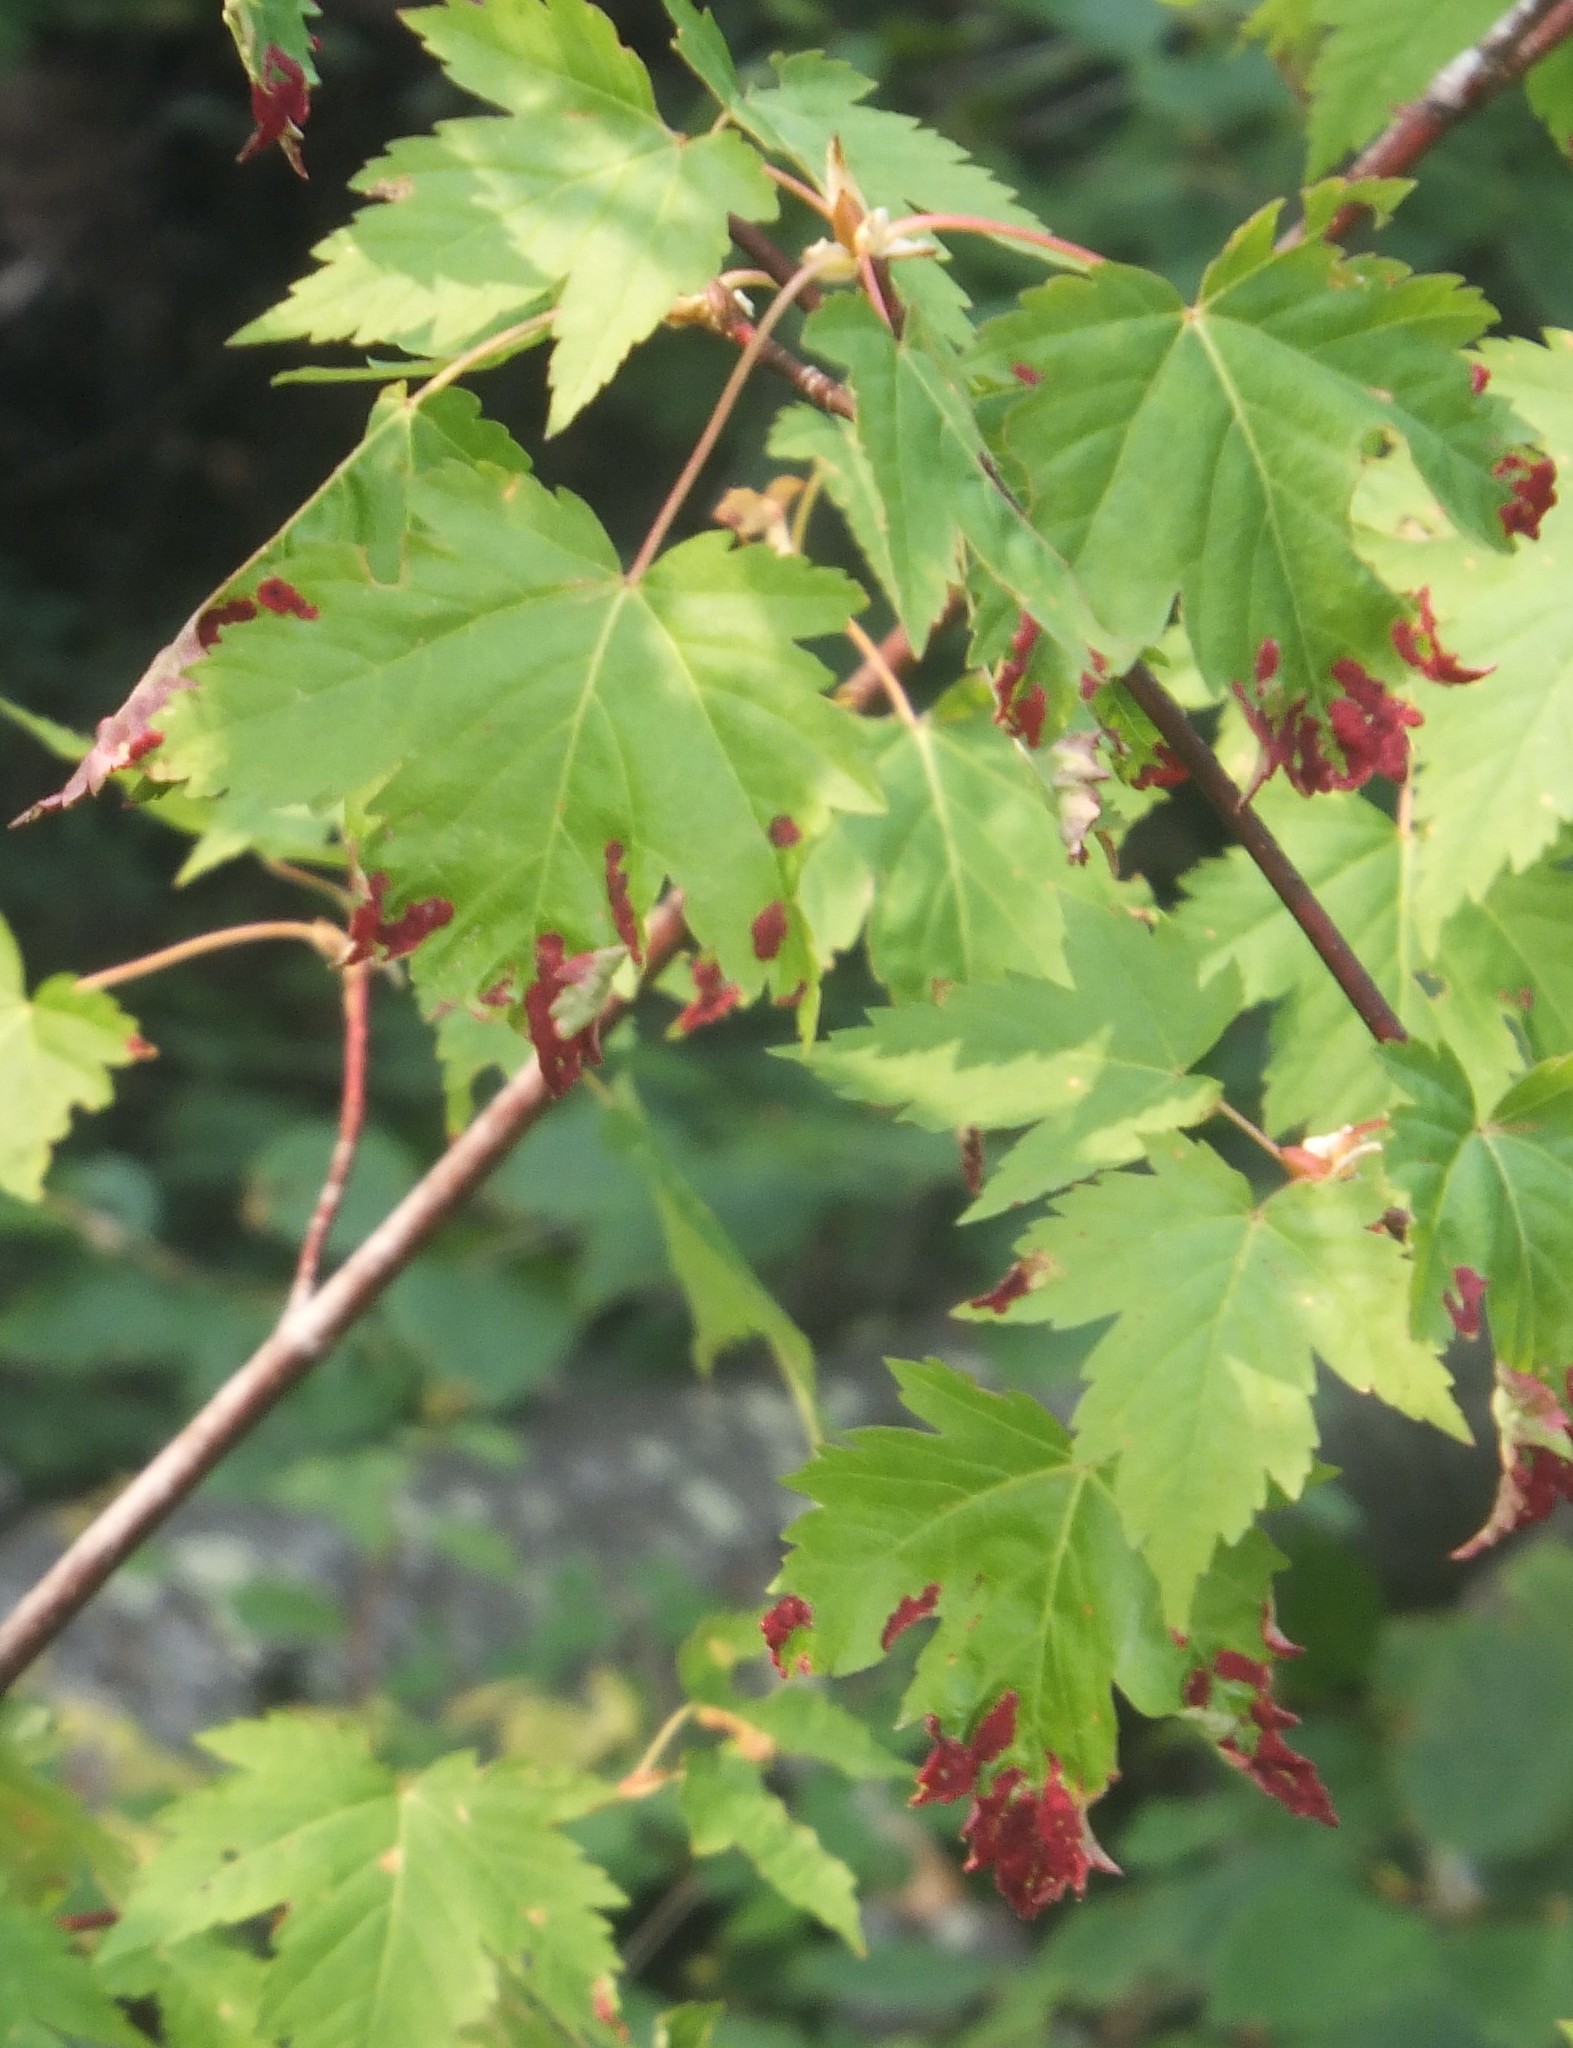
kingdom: Animalia
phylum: Arthropoda
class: Arachnida
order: Trombidiformes
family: Eriophyidae
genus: Aceria
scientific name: Aceria
